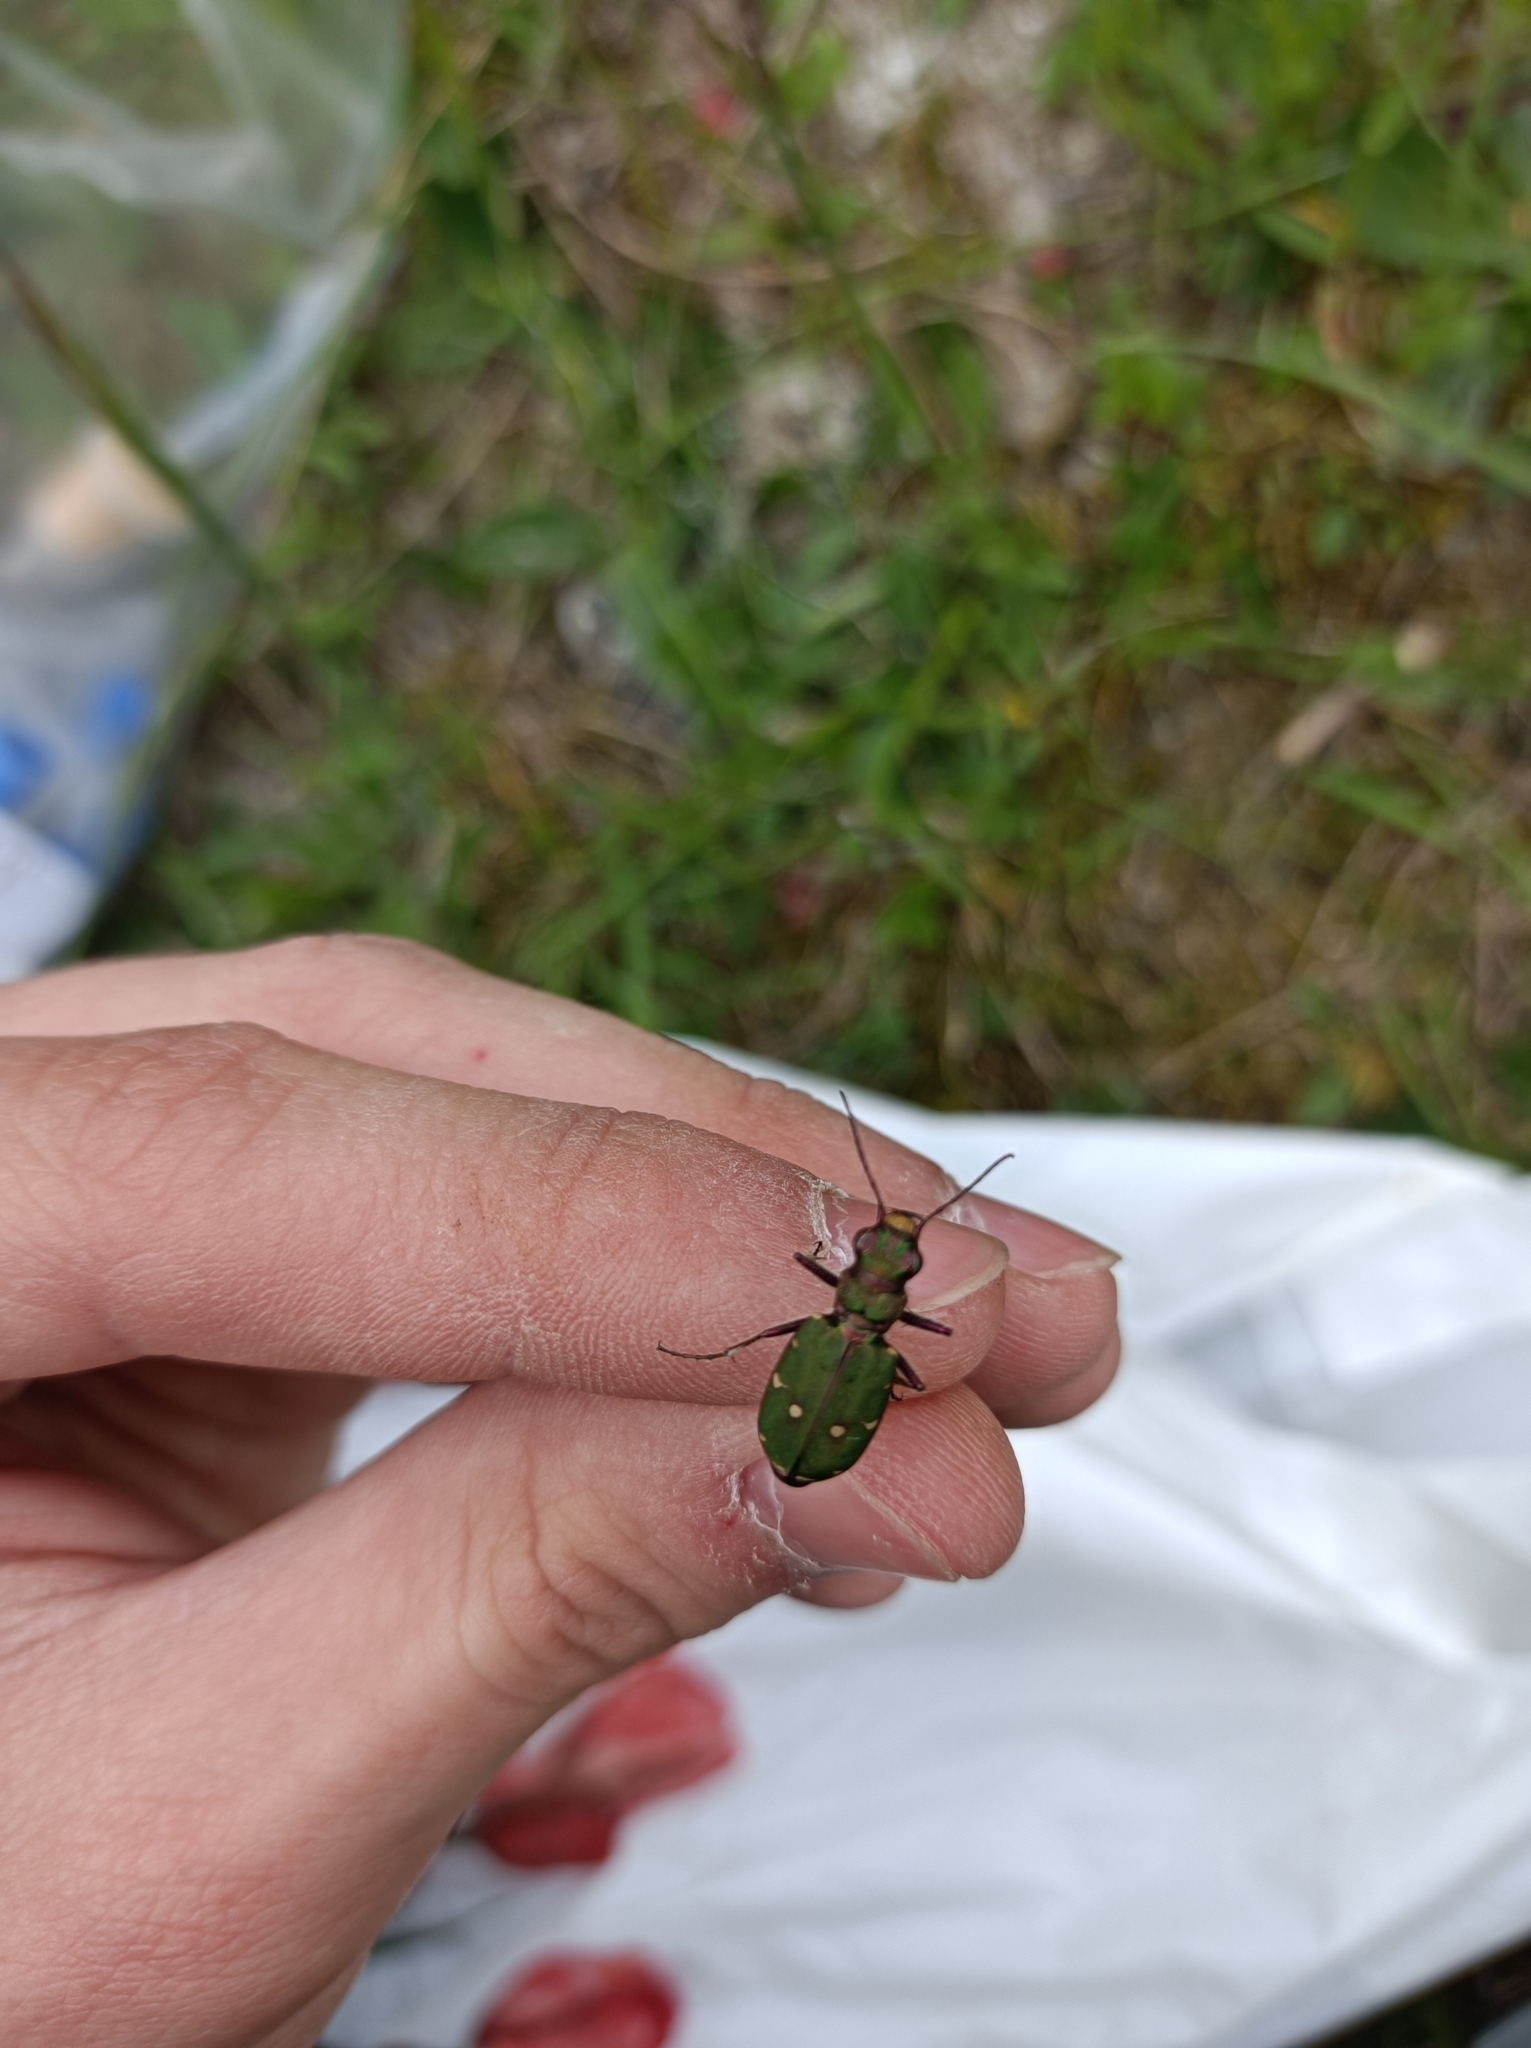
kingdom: Animalia
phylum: Arthropoda
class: Insecta
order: Coleoptera
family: Carabidae
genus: Cicindela
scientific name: Cicindela campestris
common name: Common tiger beetle
